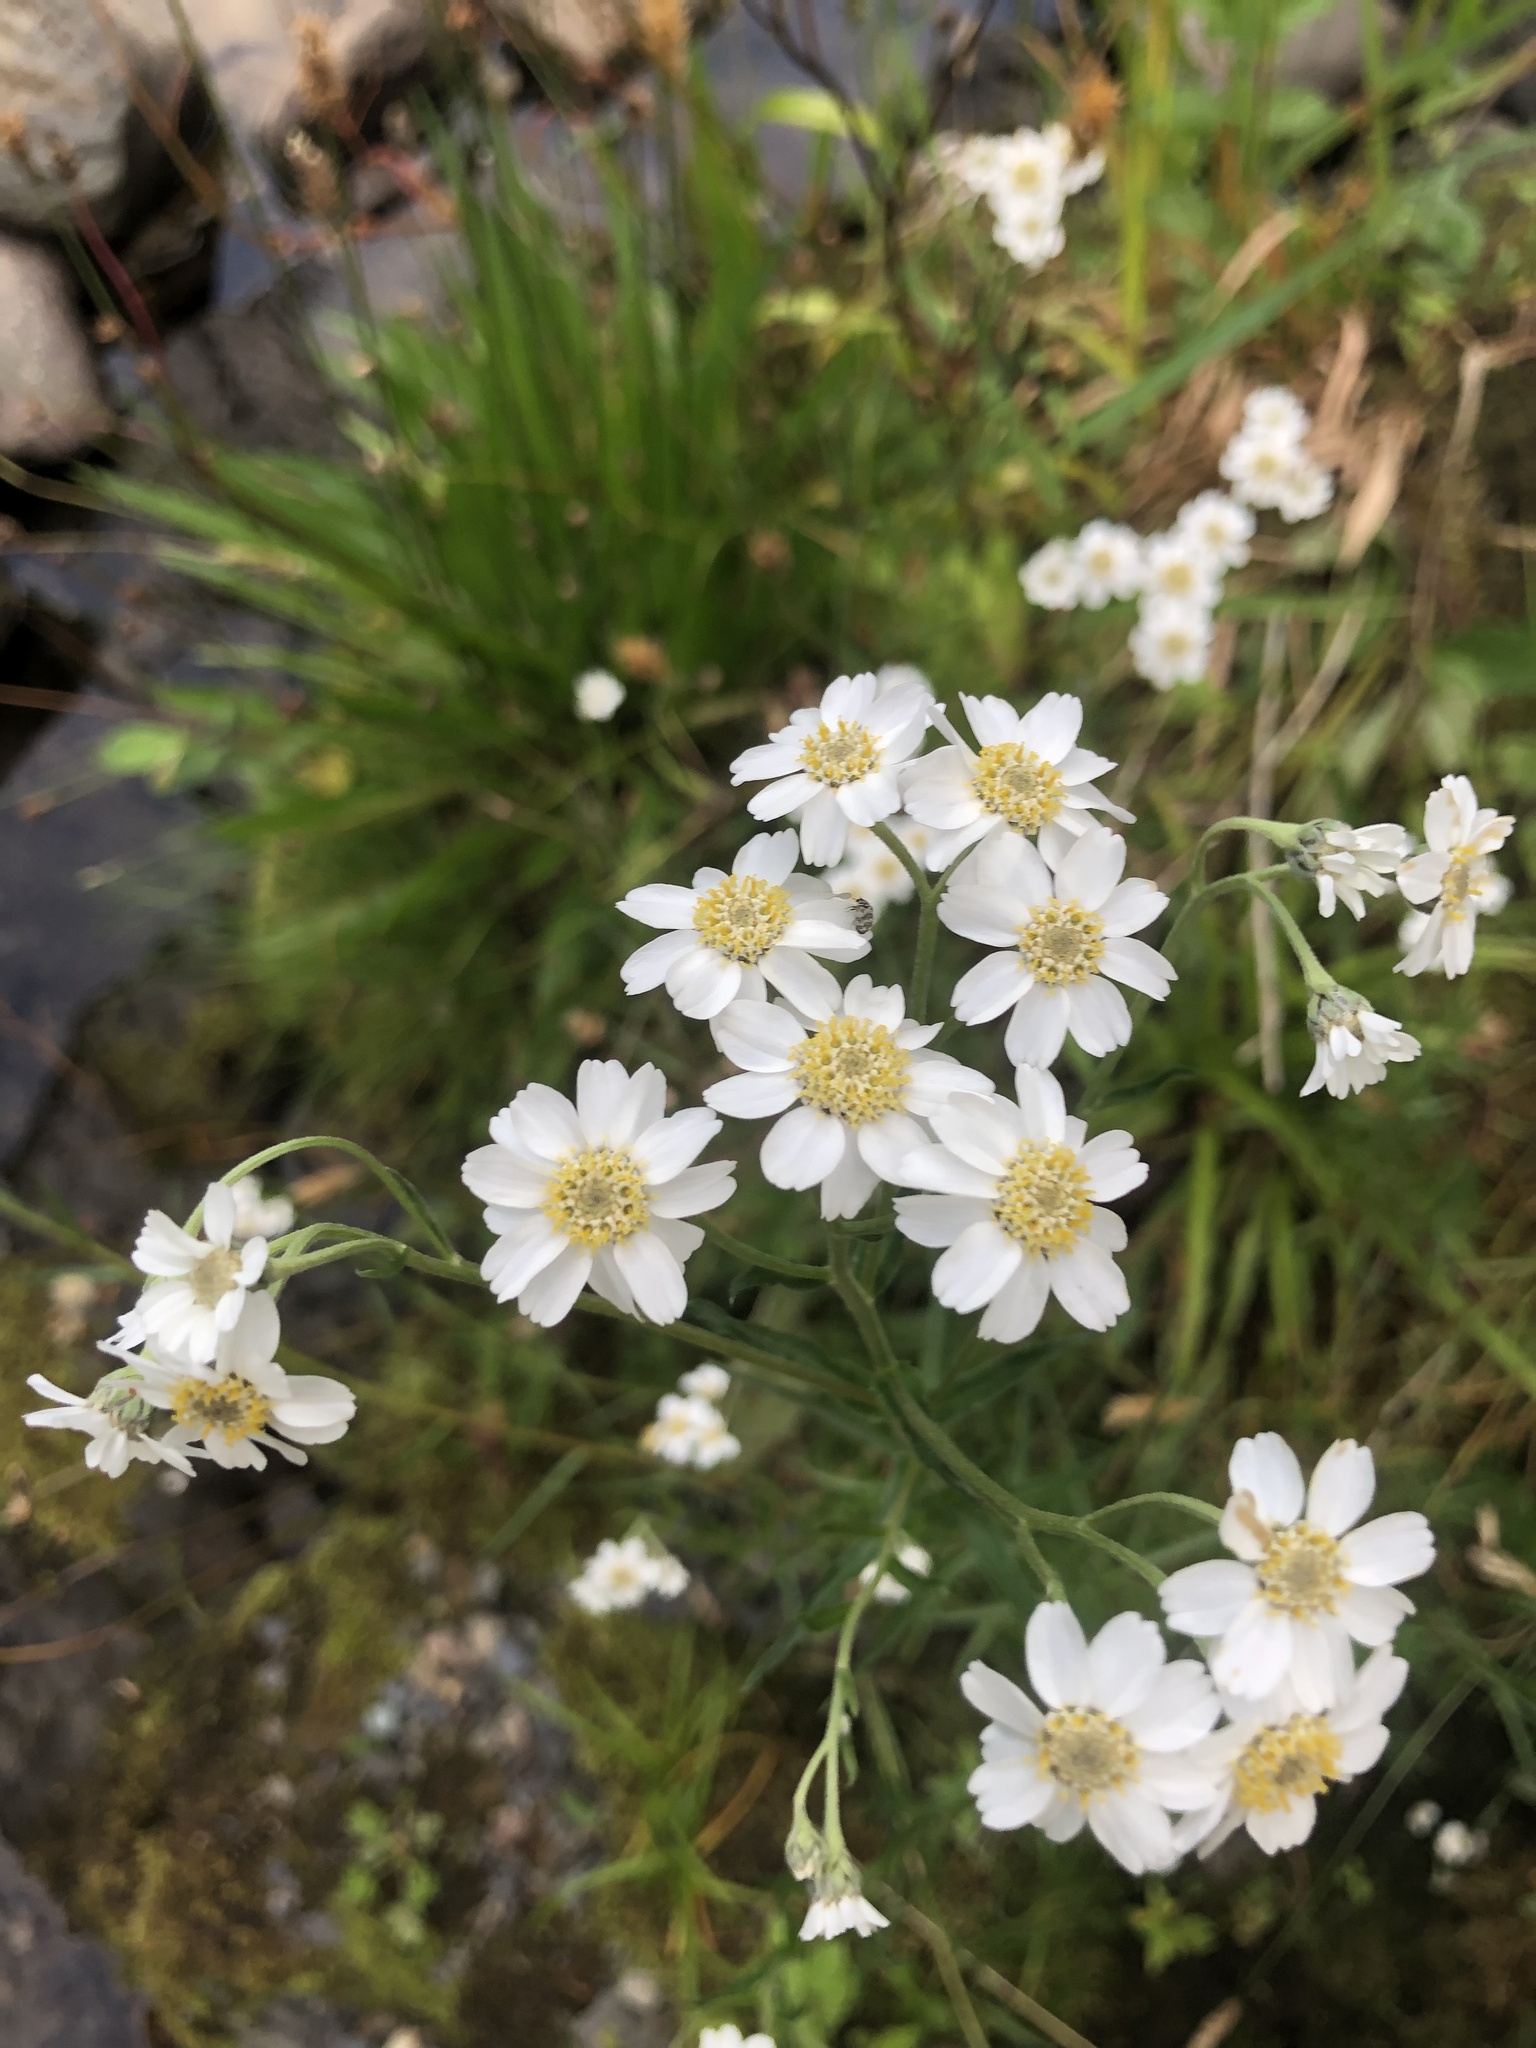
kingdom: Plantae
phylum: Tracheophyta
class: Magnoliopsida
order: Asterales
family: Asteraceae
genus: Achillea
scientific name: Achillea ptarmica
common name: Sneezeweed
